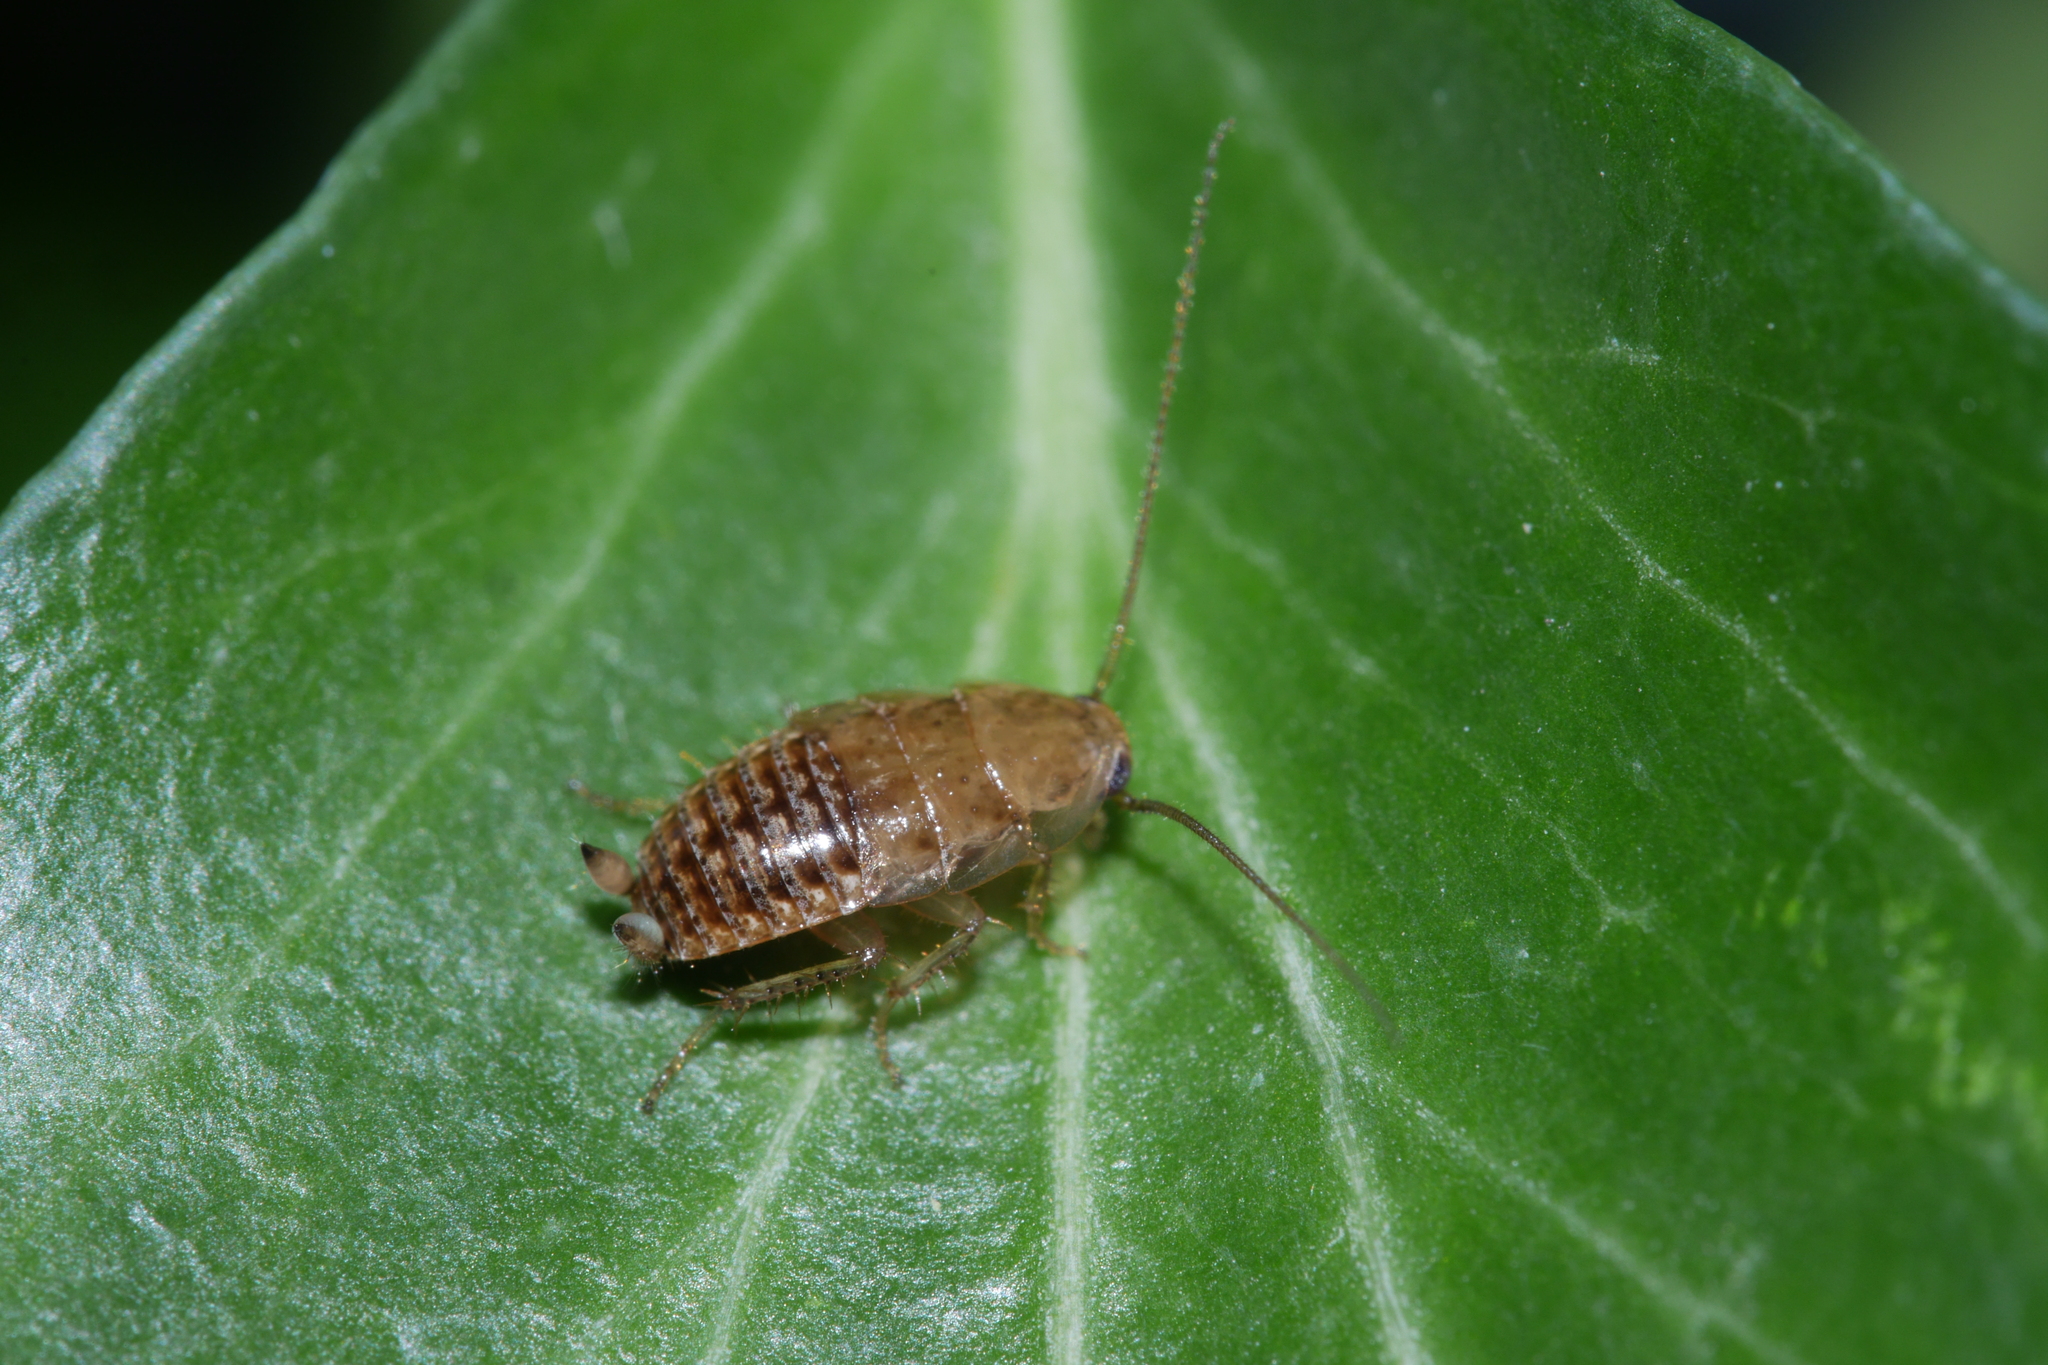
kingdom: Animalia
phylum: Arthropoda
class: Insecta
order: Blattodea
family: Ectobiidae
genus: Ectobius
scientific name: Ectobius vittiventris
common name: Garden cockroach
